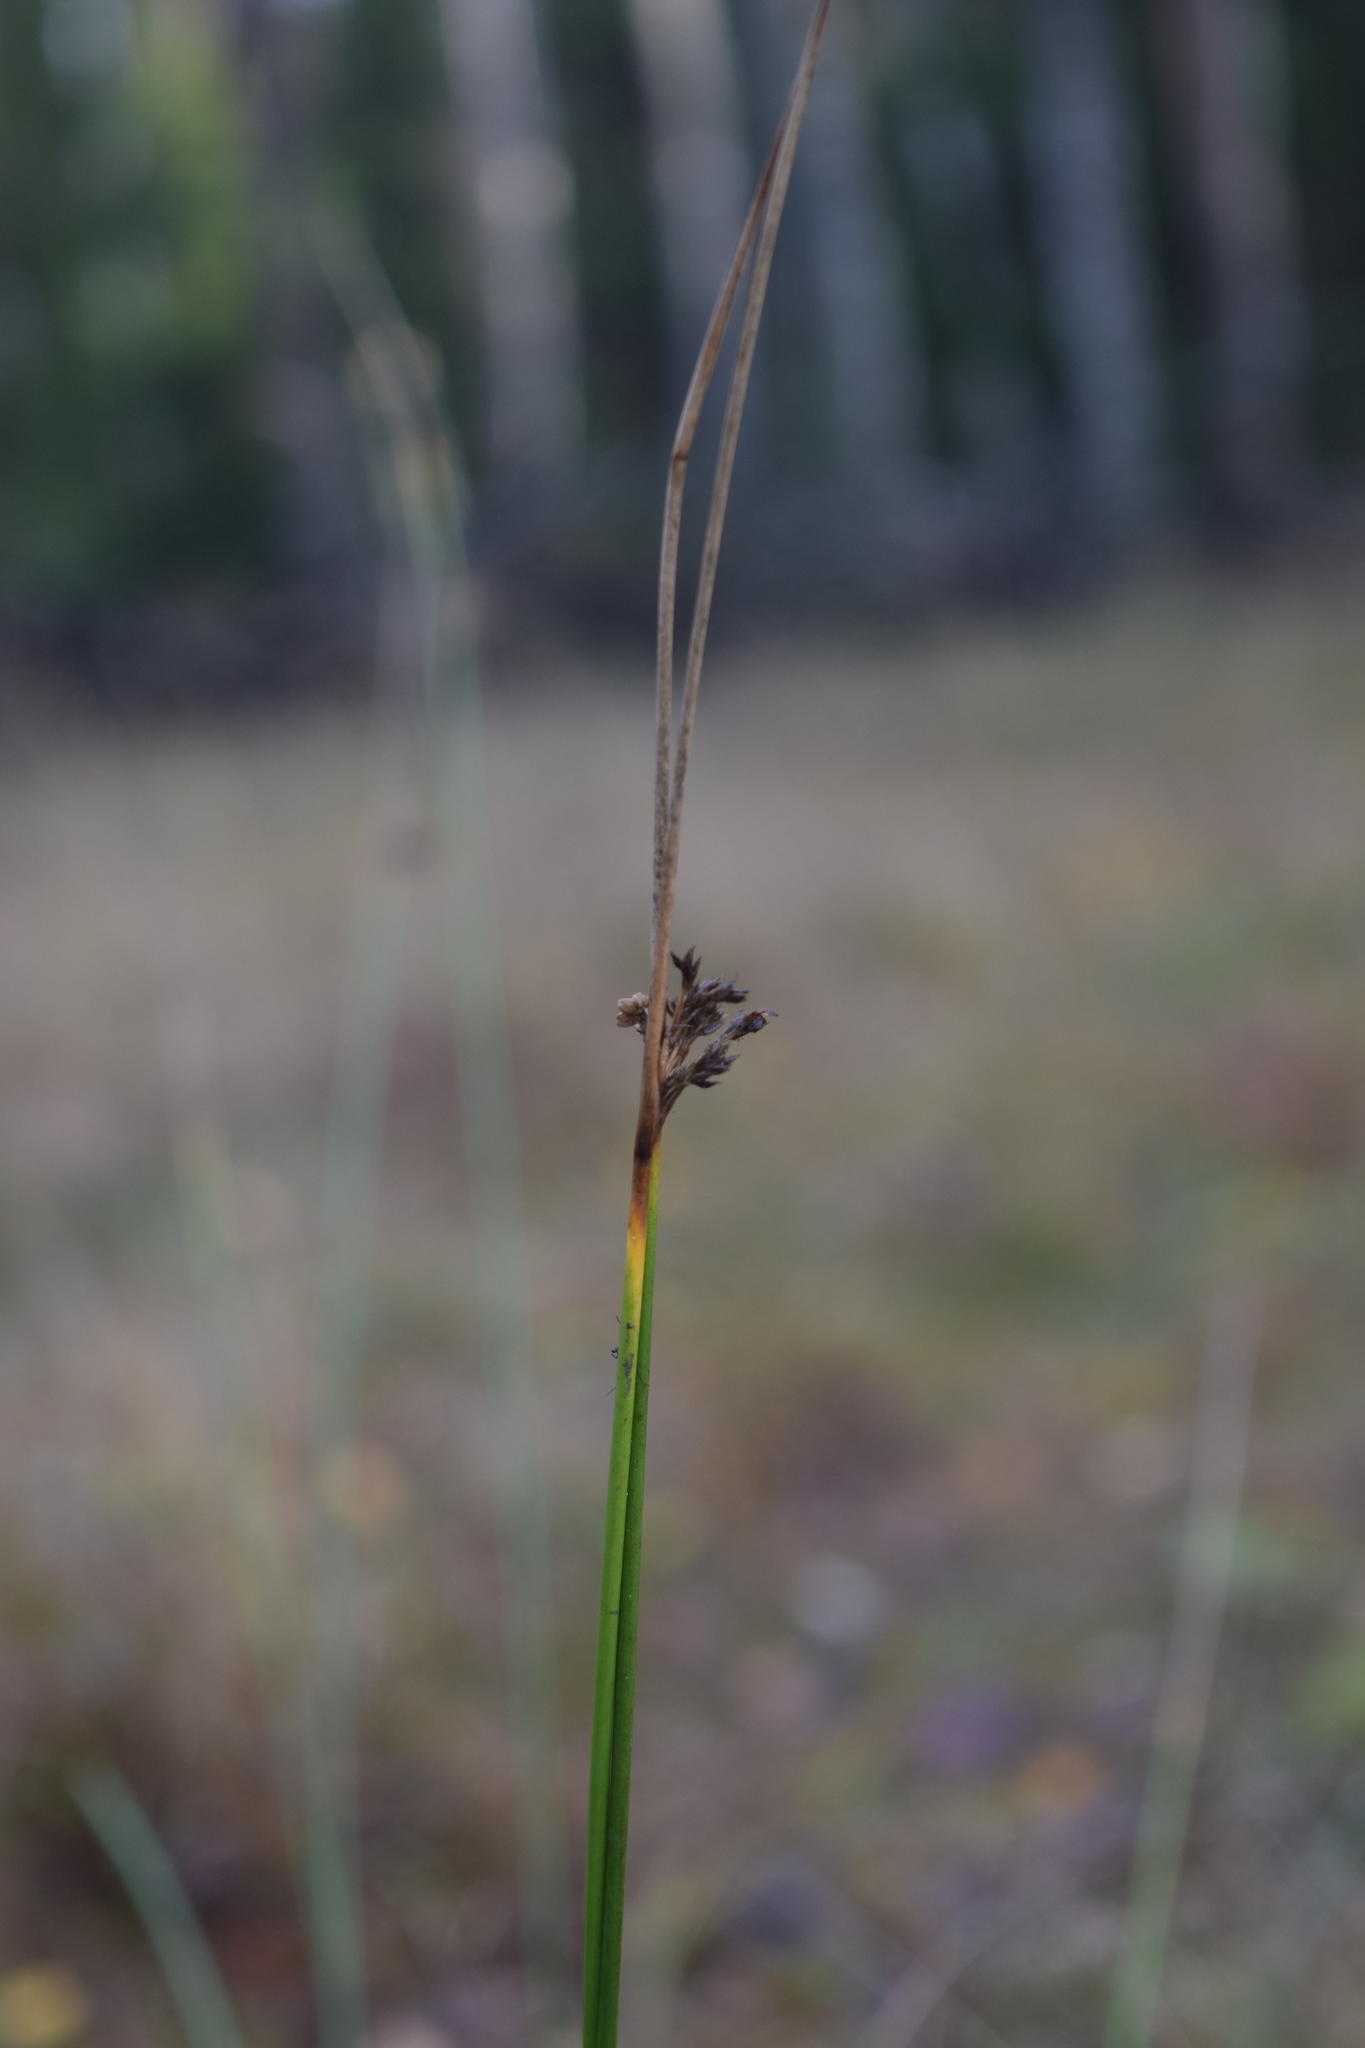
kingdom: Plantae
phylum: Tracheophyta
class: Liliopsida
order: Poales
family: Juncaceae
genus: Juncus
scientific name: Juncus effusus
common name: Soft rush
